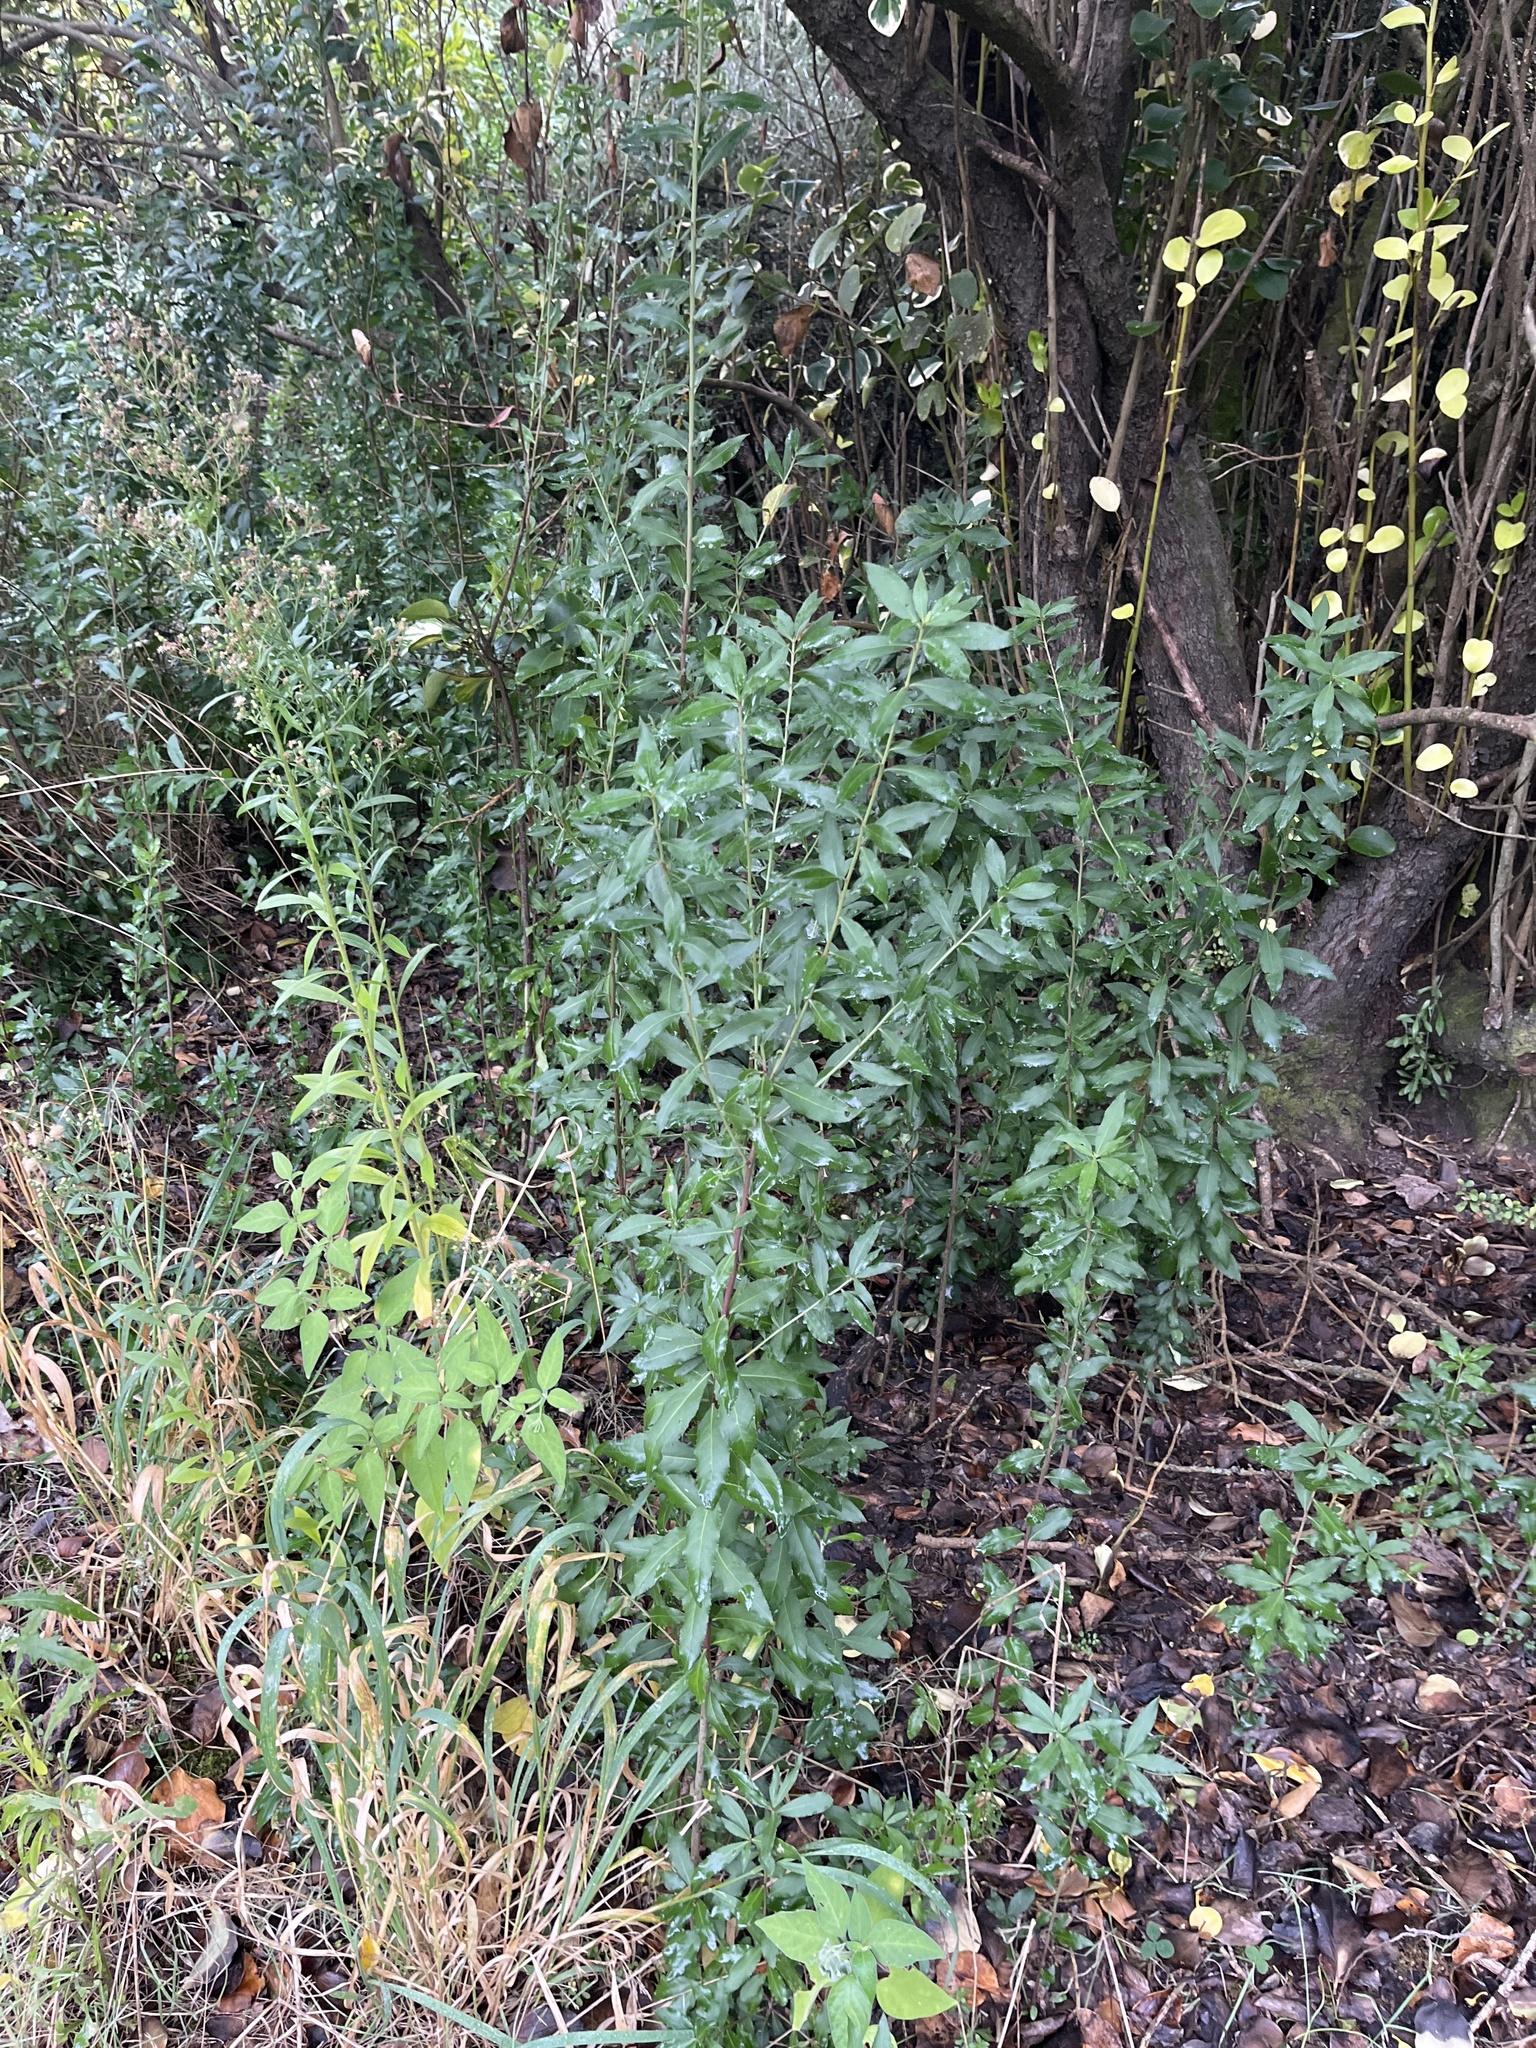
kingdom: Plantae
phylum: Tracheophyta
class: Magnoliopsida
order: Celastrales
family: Celastraceae
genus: Maytenus
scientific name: Maytenus boaria
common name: Mayten
